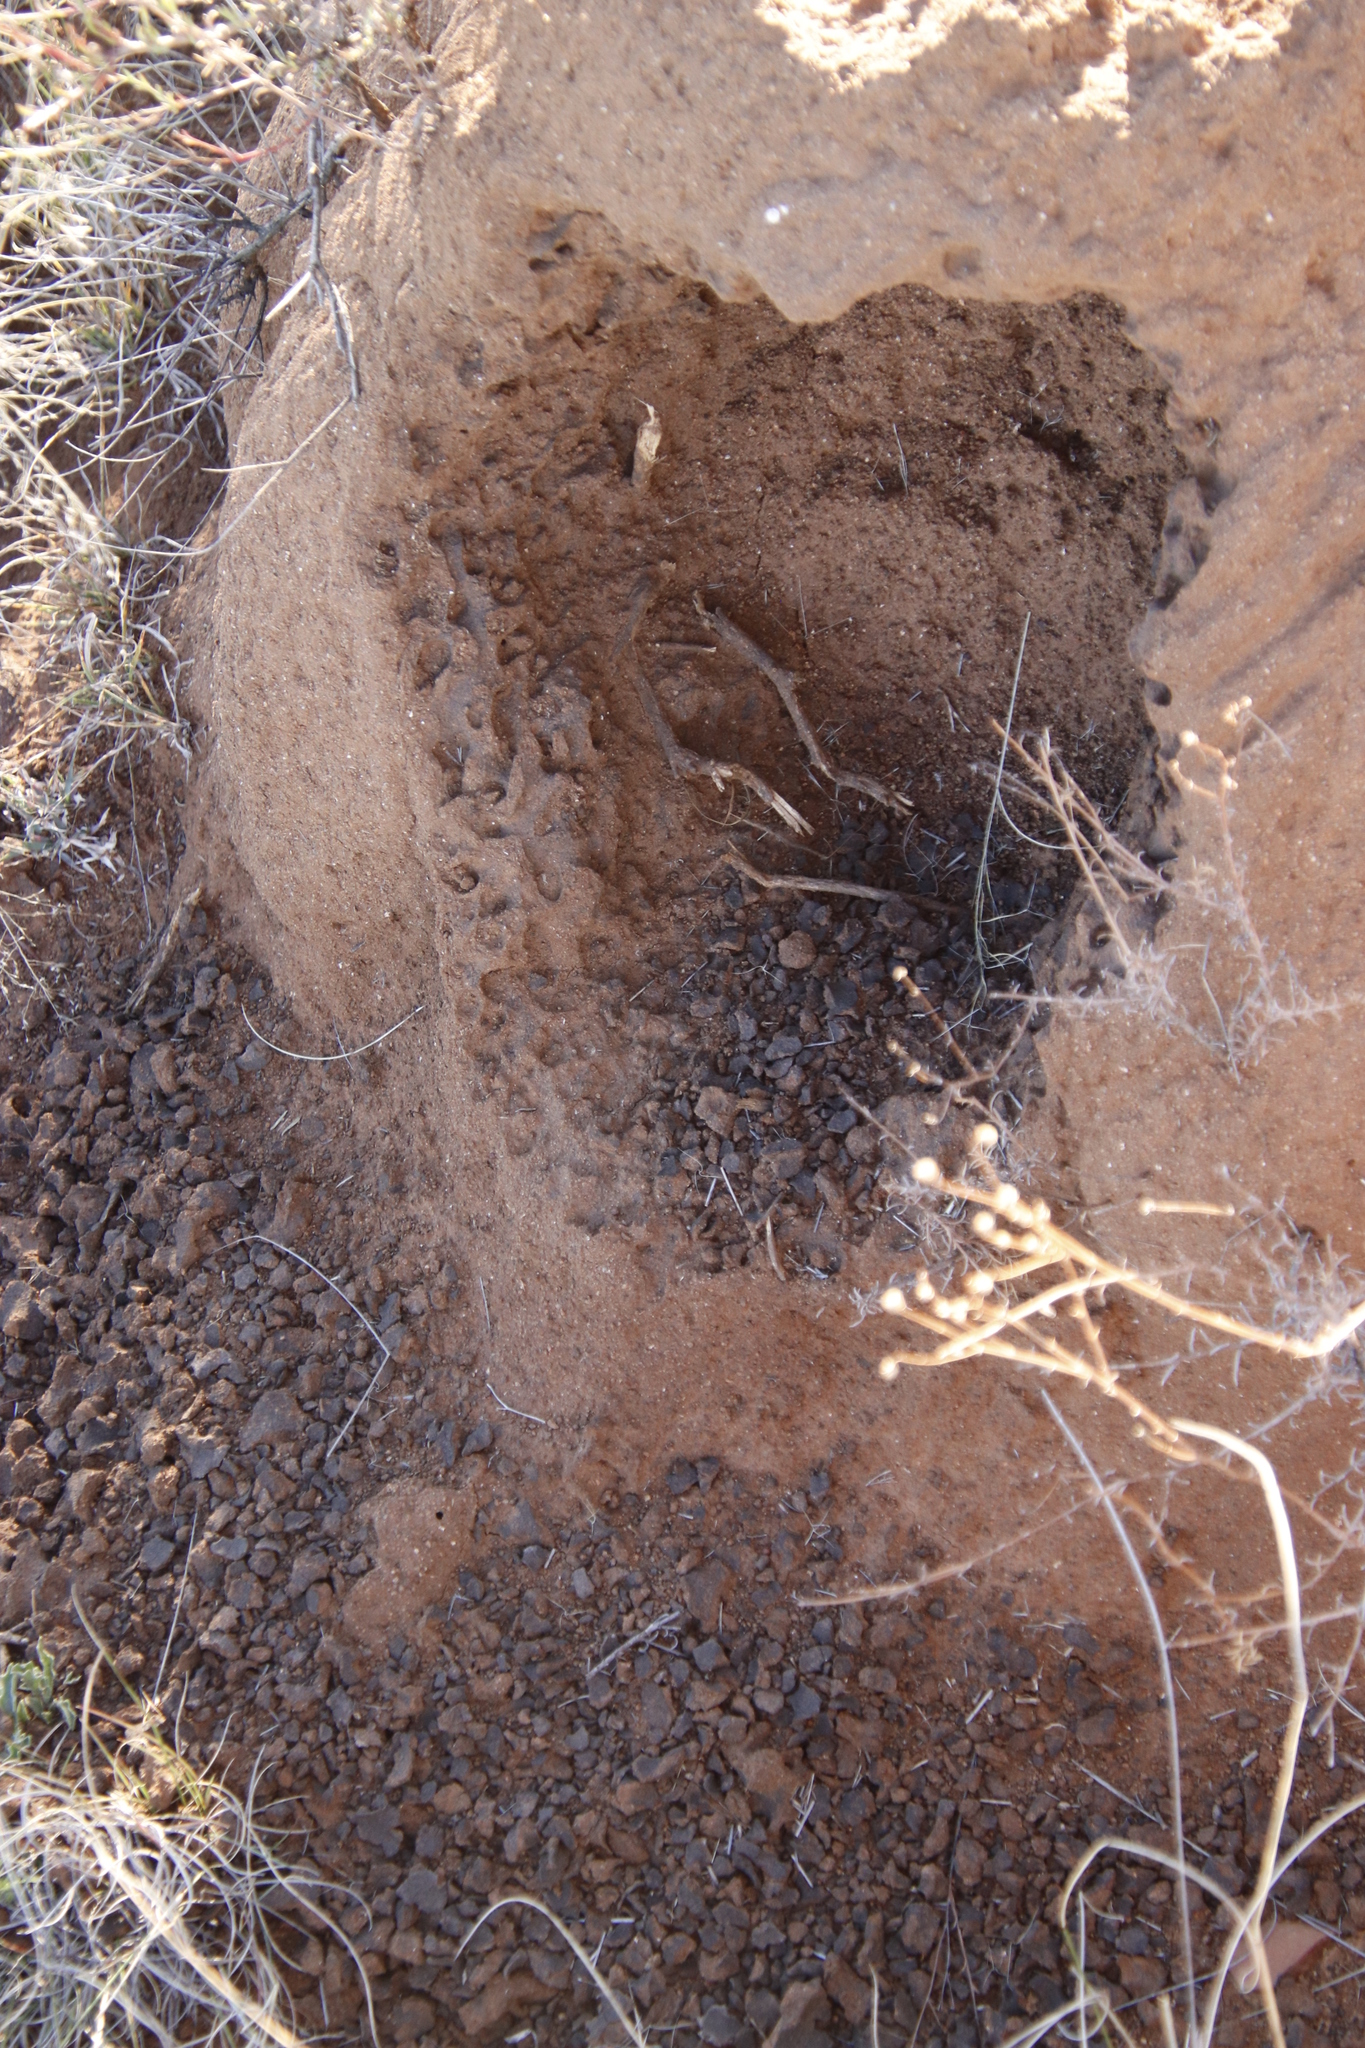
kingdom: Animalia
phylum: Chordata
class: Mammalia
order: Tubulidentata
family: Orycteropodidae
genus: Orycteropus
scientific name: Orycteropus afer
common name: Aardvark
